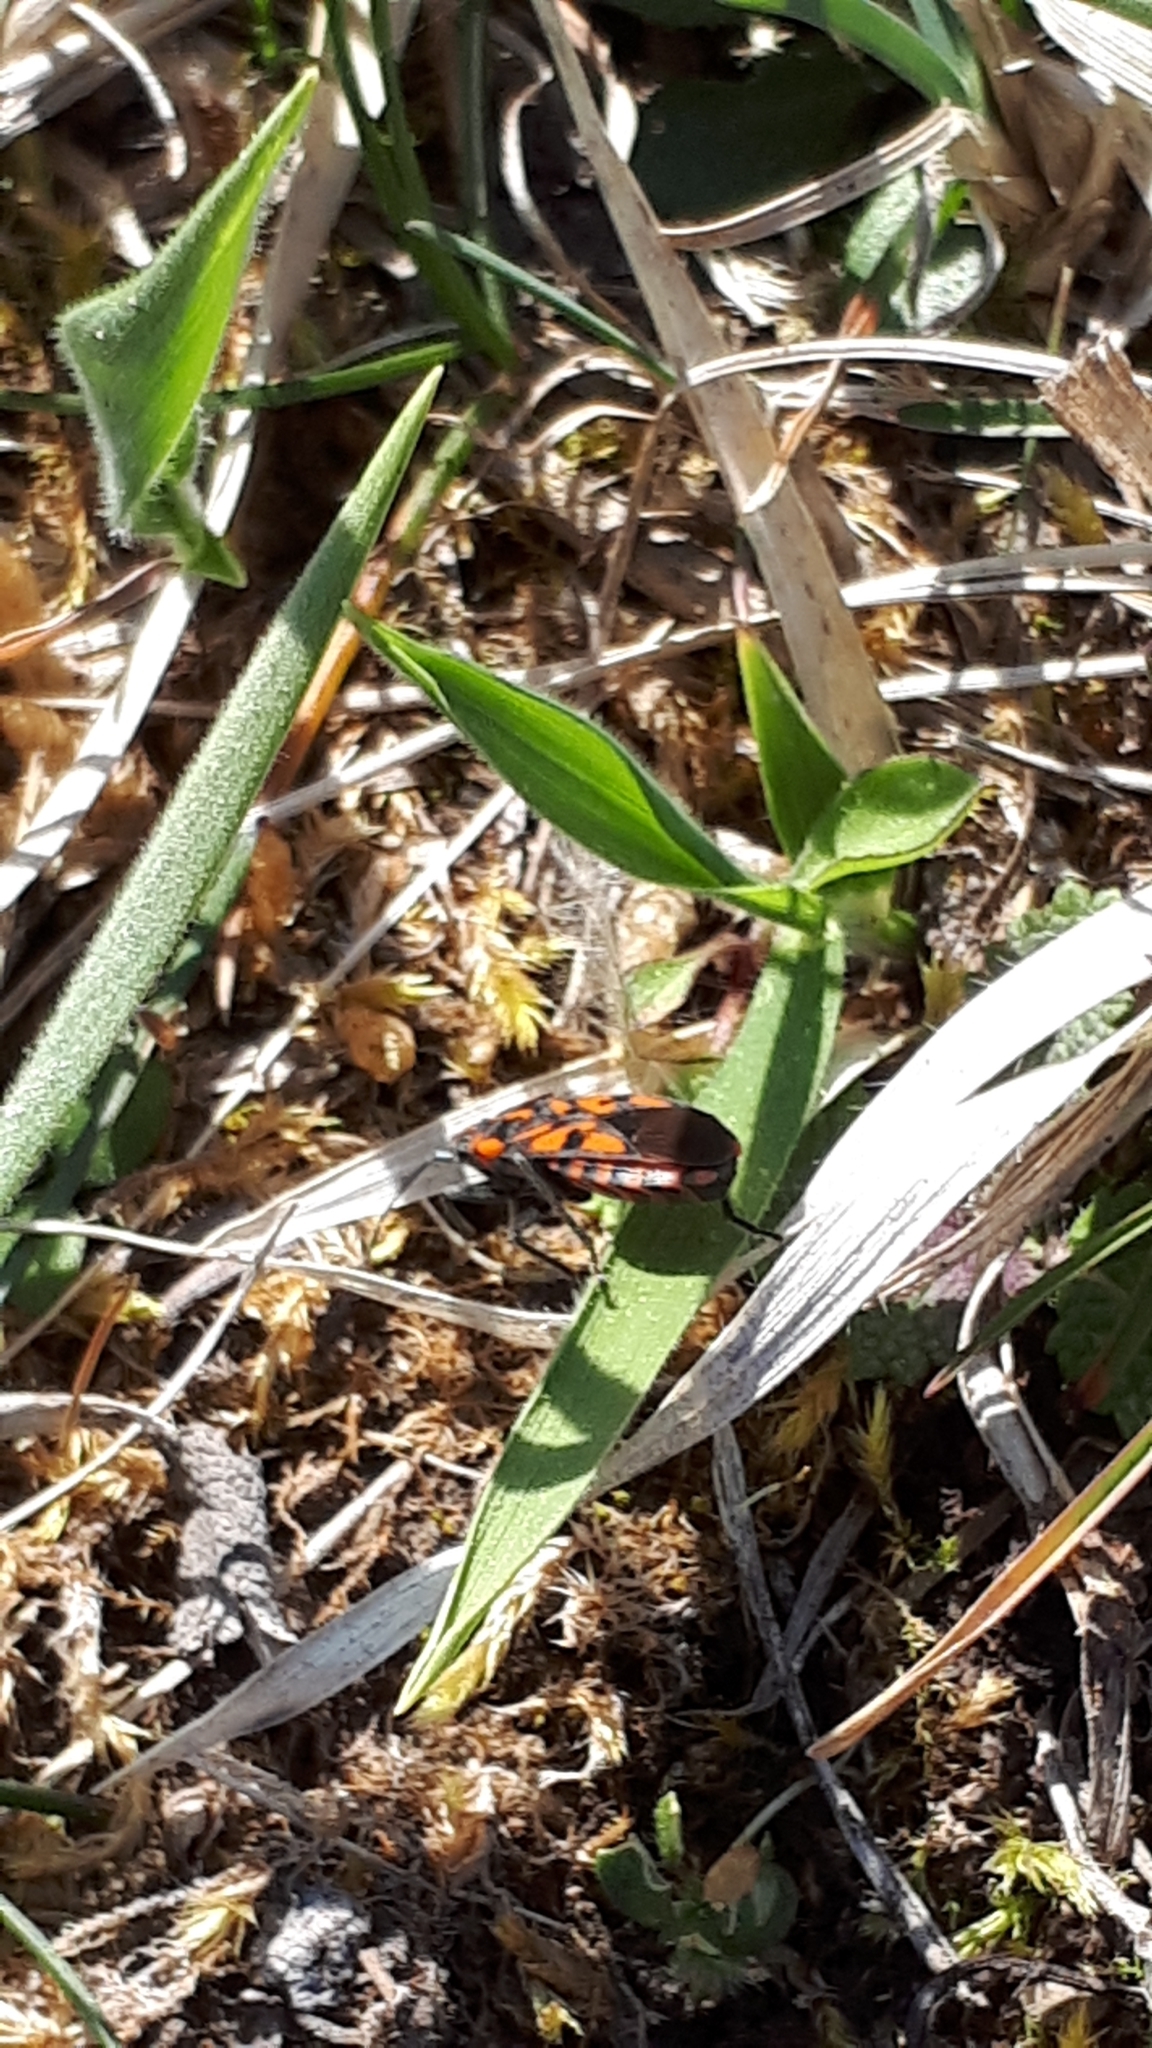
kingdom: Animalia
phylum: Arthropoda
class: Insecta
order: Hemiptera
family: Lygaeidae
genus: Spilostethus
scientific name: Spilostethus saxatilis
